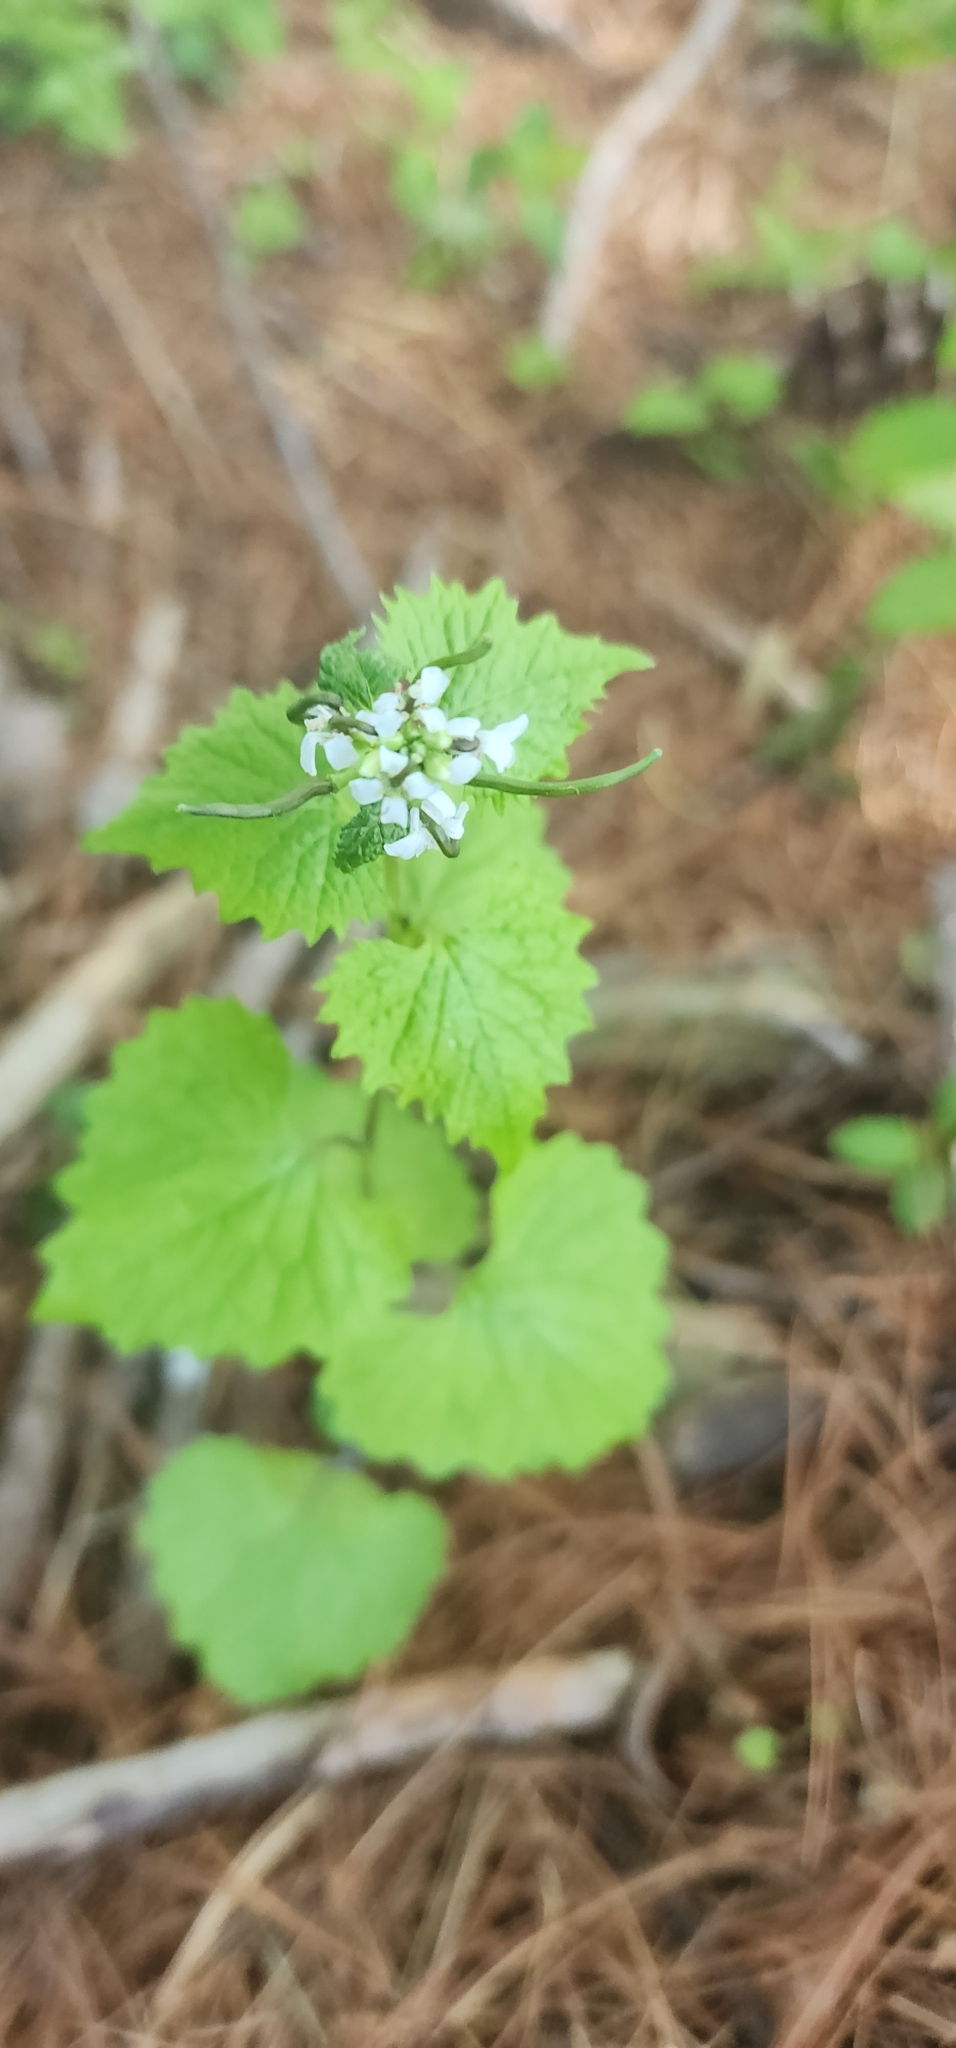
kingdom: Plantae
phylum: Tracheophyta
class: Magnoliopsida
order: Brassicales
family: Brassicaceae
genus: Alliaria
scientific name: Alliaria petiolata
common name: Garlic mustard
